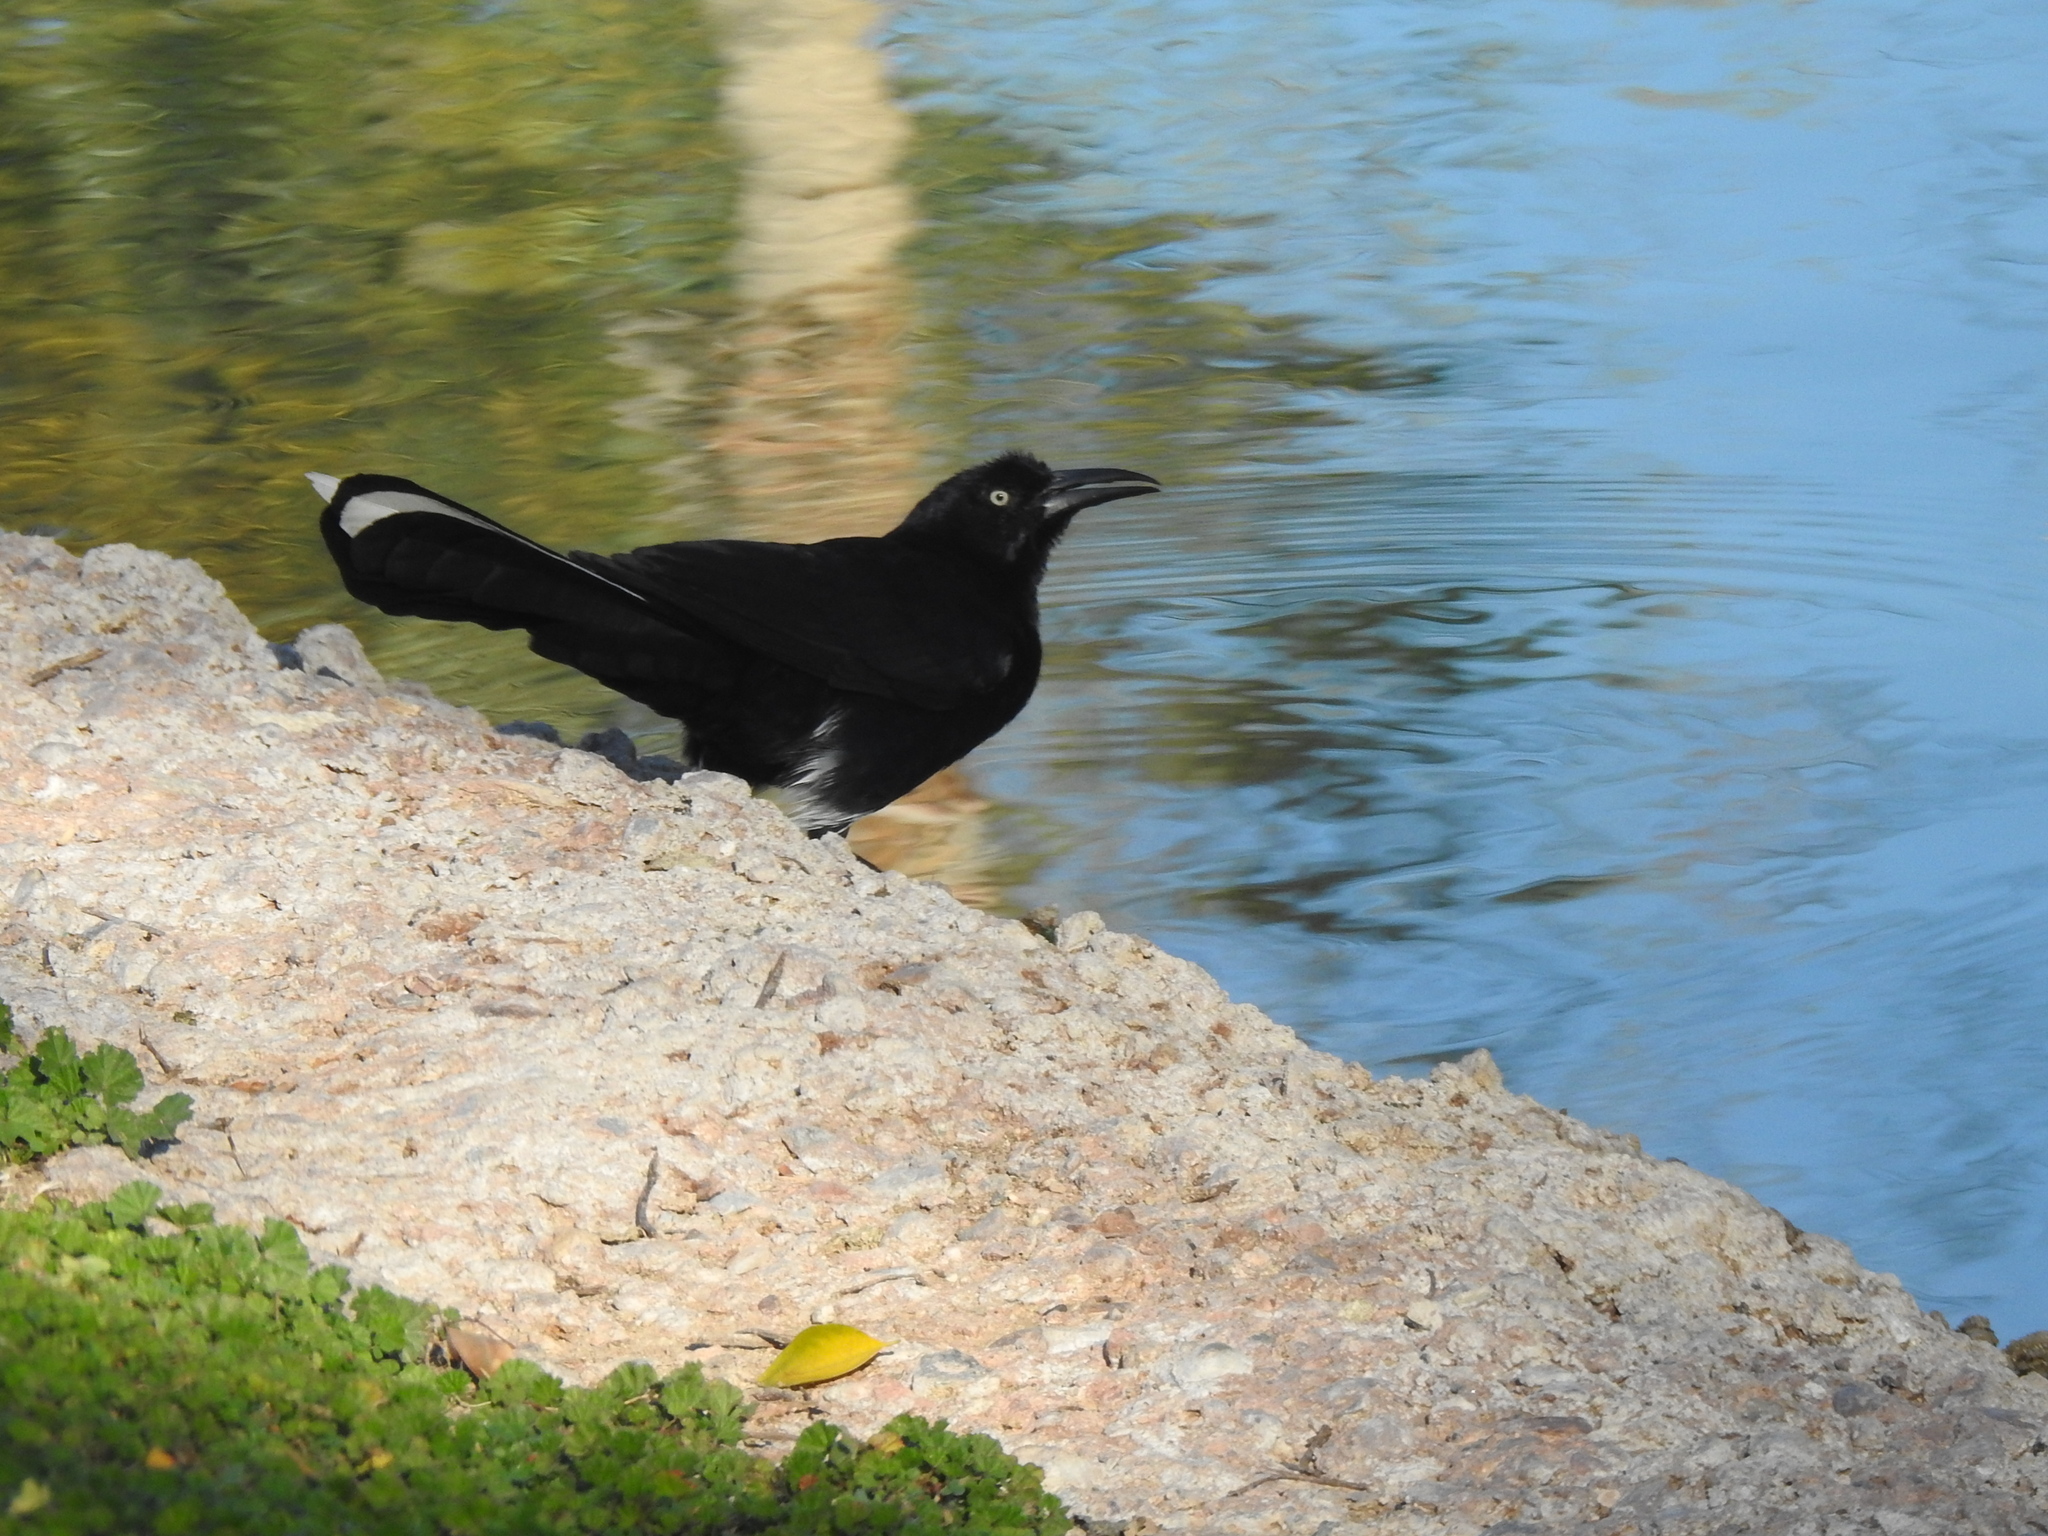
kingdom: Animalia
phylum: Chordata
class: Aves
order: Passeriformes
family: Icteridae
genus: Quiscalus
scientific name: Quiscalus mexicanus
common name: Great-tailed grackle
